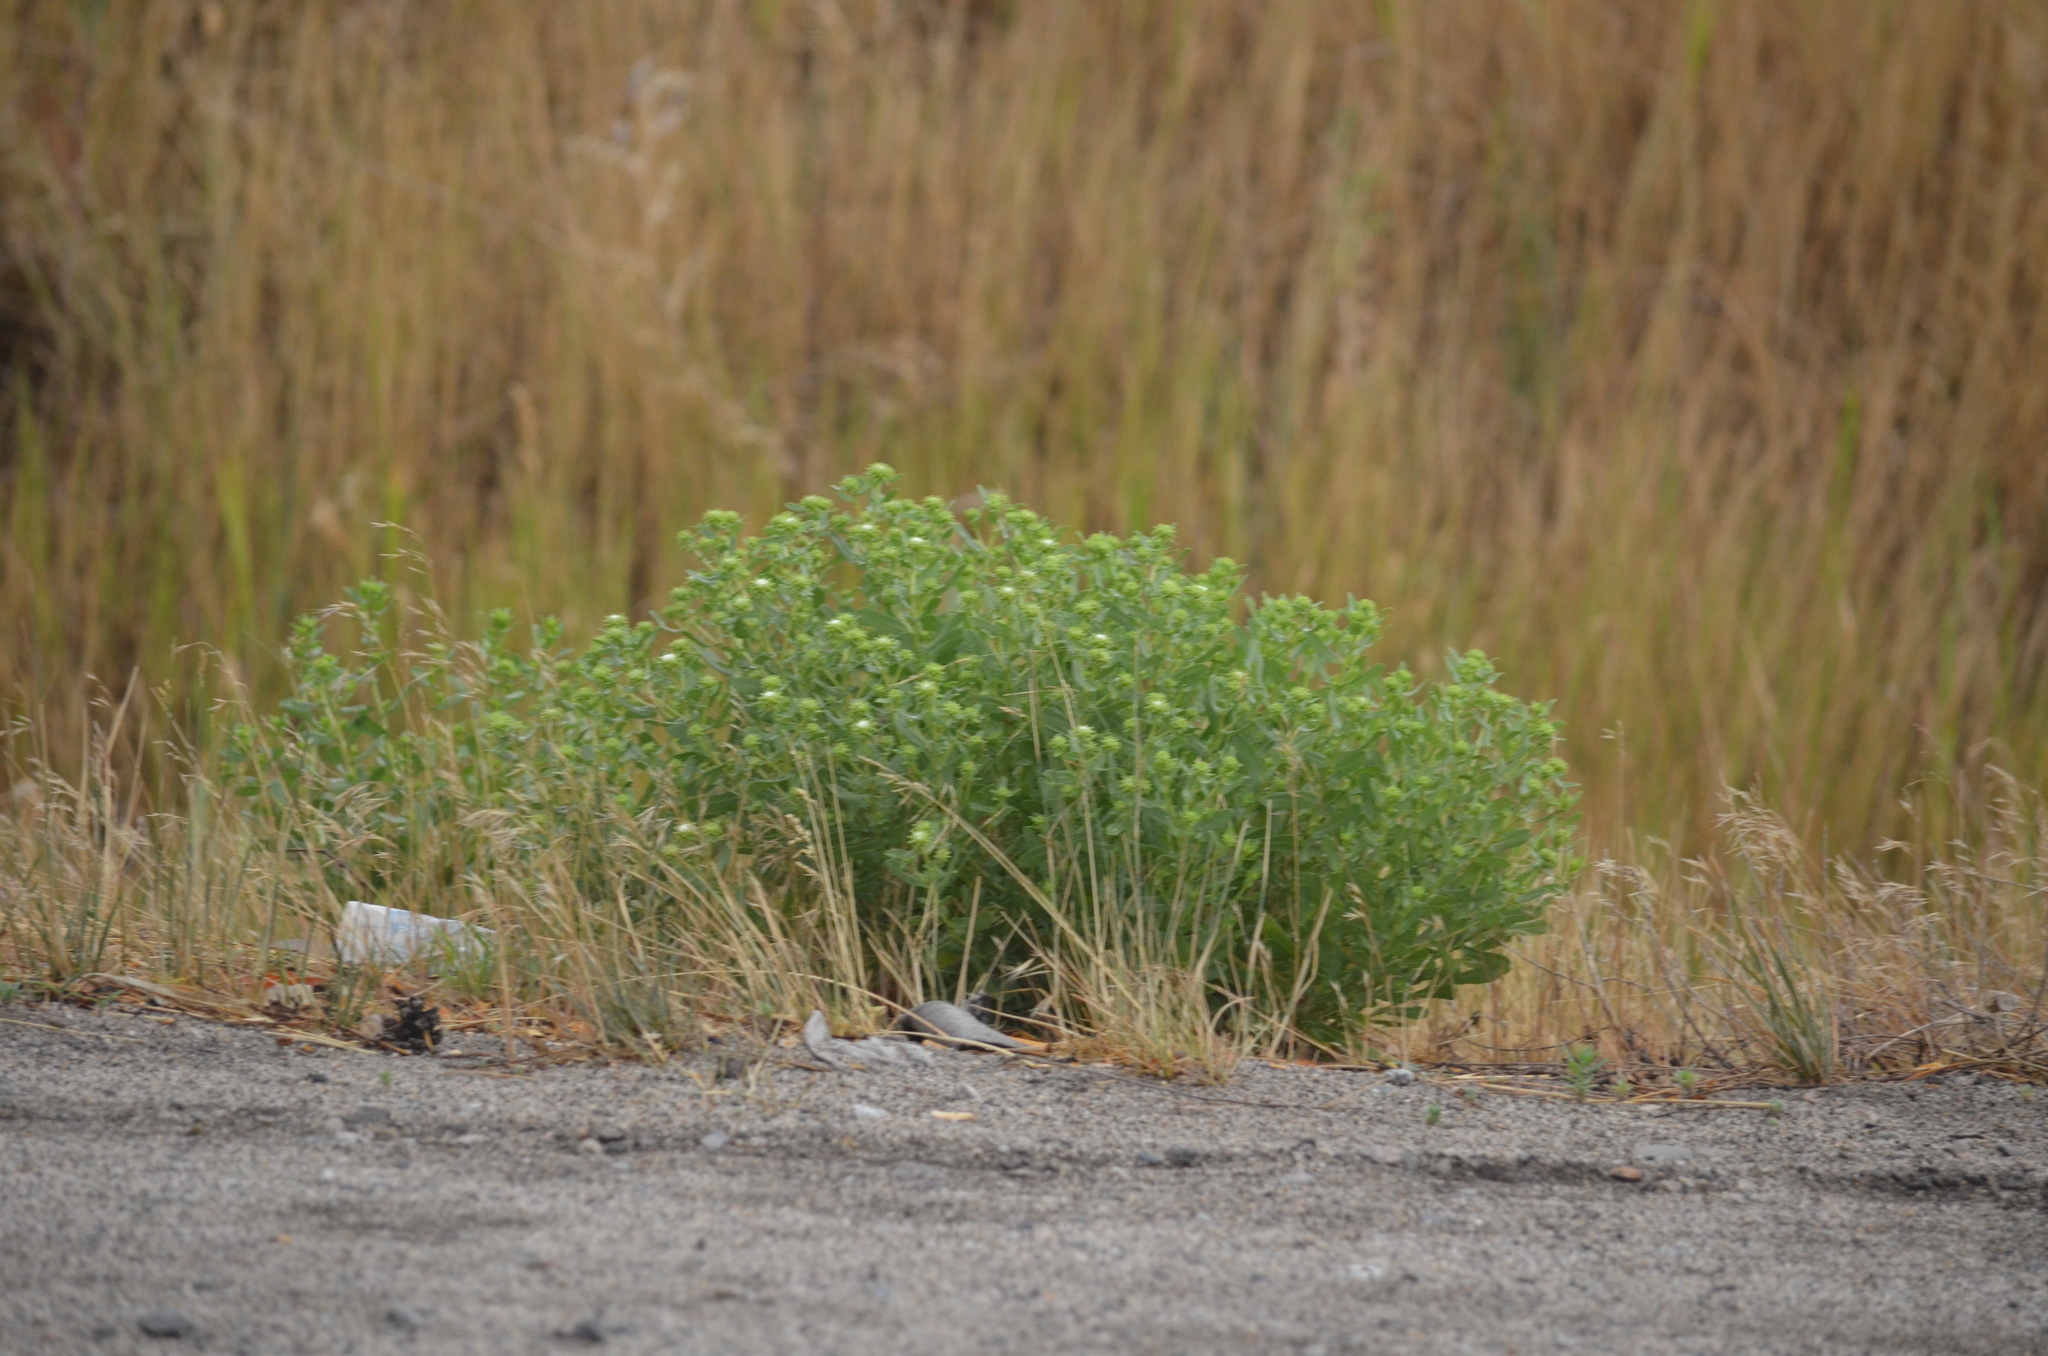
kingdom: Plantae
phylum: Tracheophyta
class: Magnoliopsida
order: Asterales
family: Asteraceae
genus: Grindelia
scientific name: Grindelia squarrosa
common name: Curly-cup gumweed
